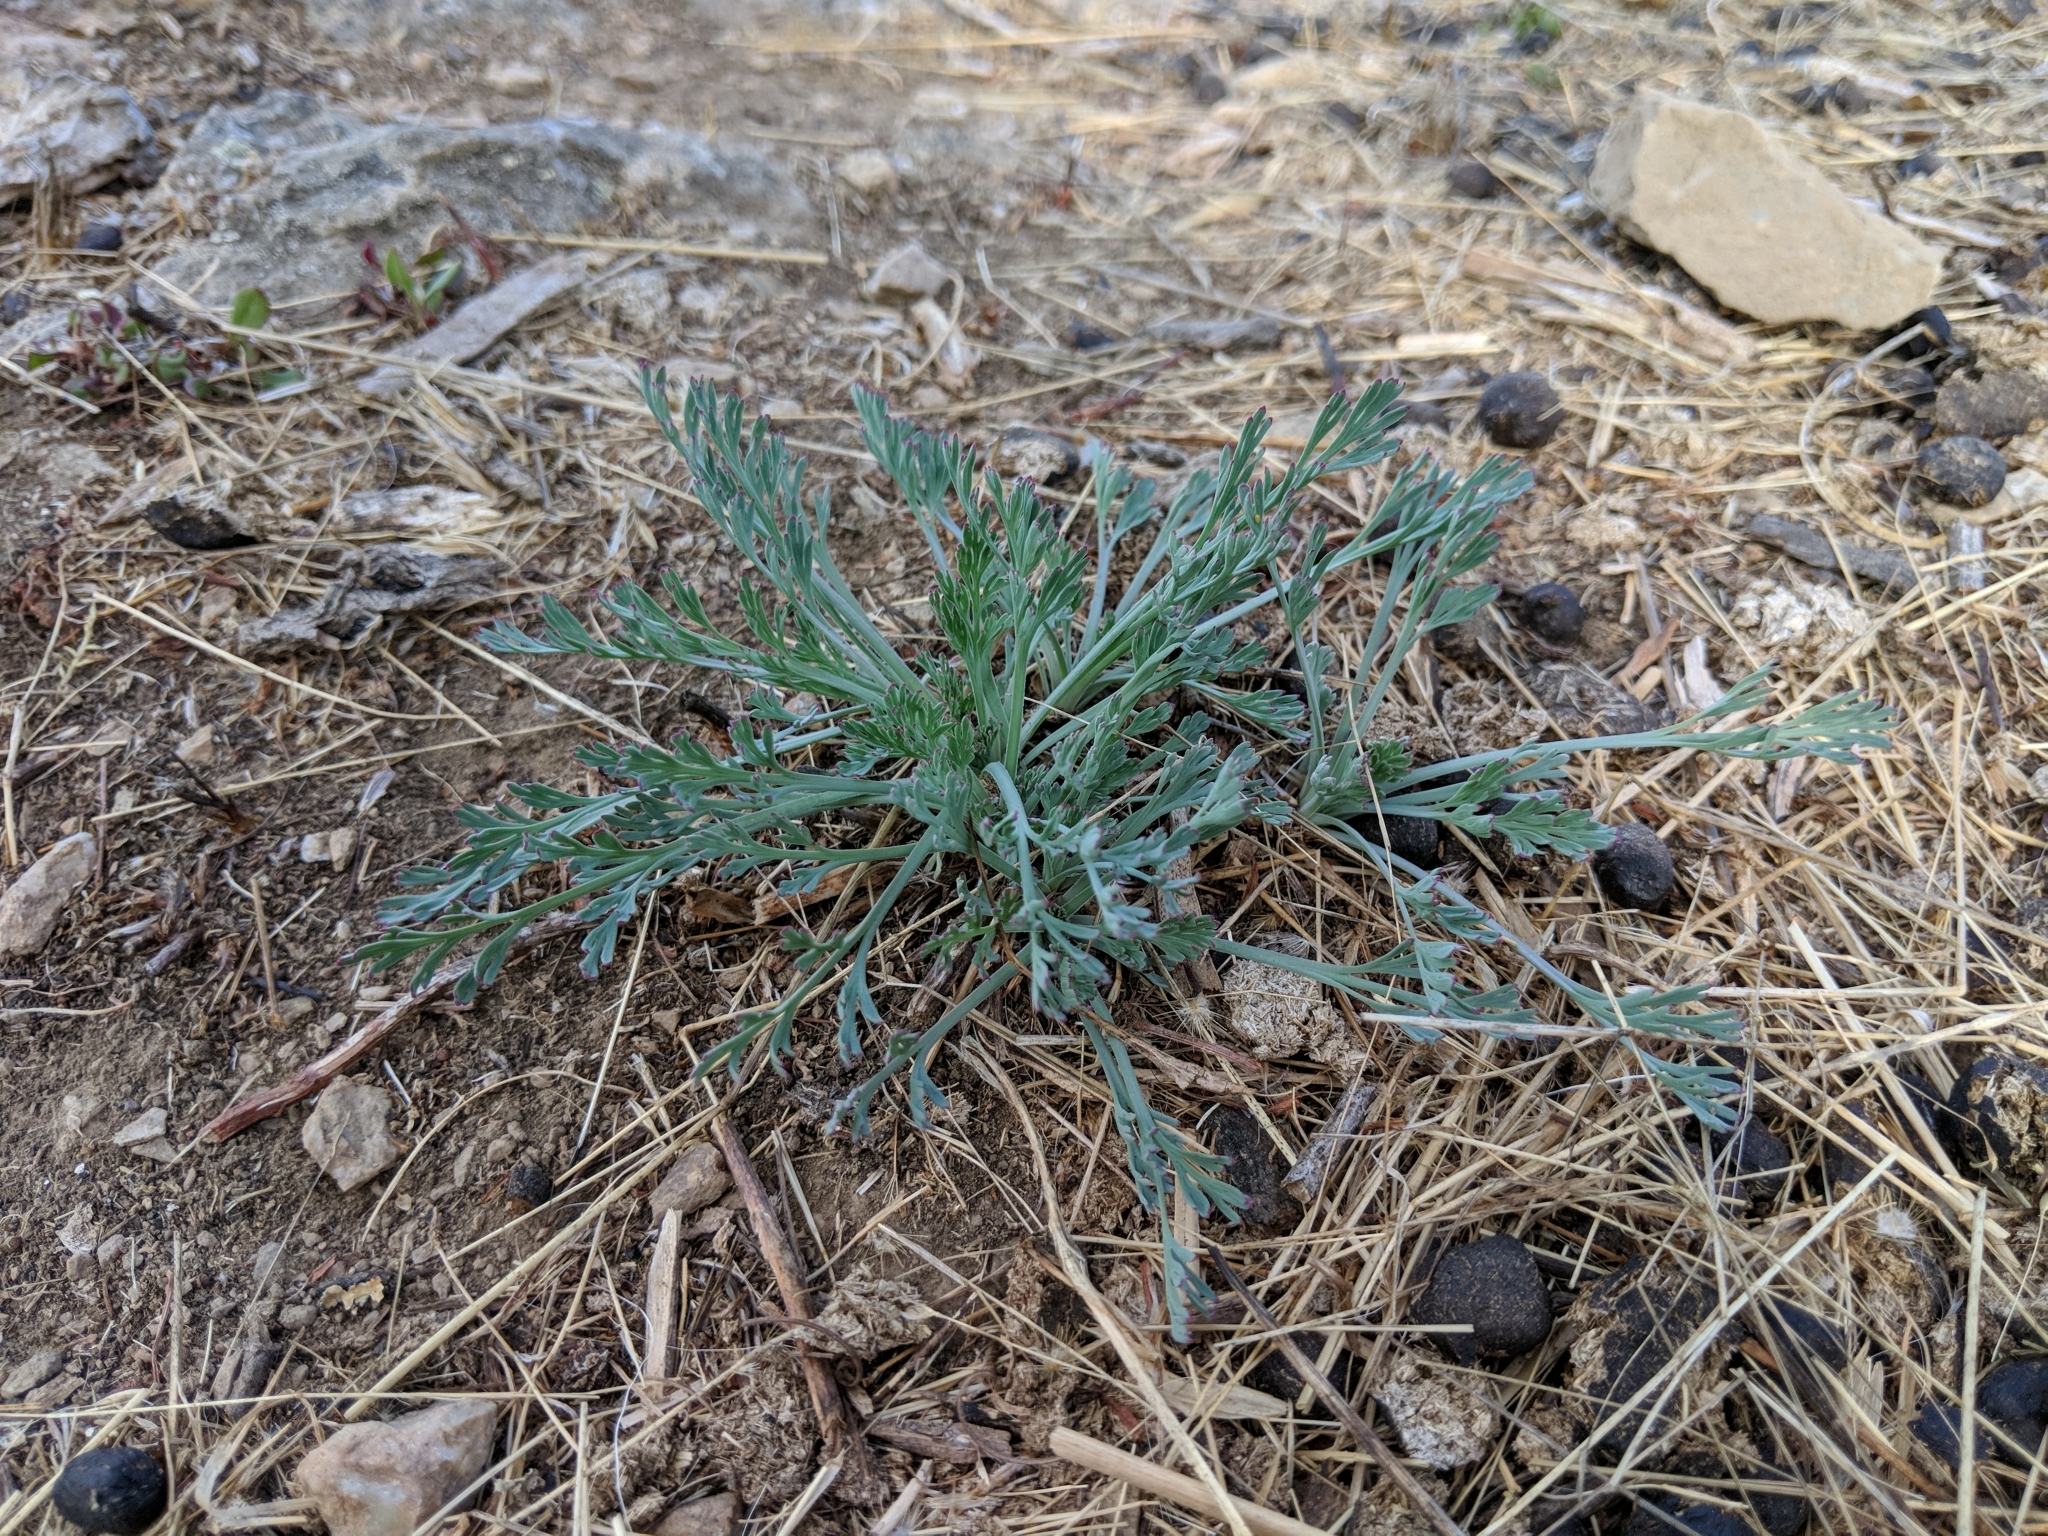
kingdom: Plantae
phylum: Tracheophyta
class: Magnoliopsida
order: Ranunculales
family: Papaveraceae
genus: Eschscholzia
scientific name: Eschscholzia californica
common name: California poppy
